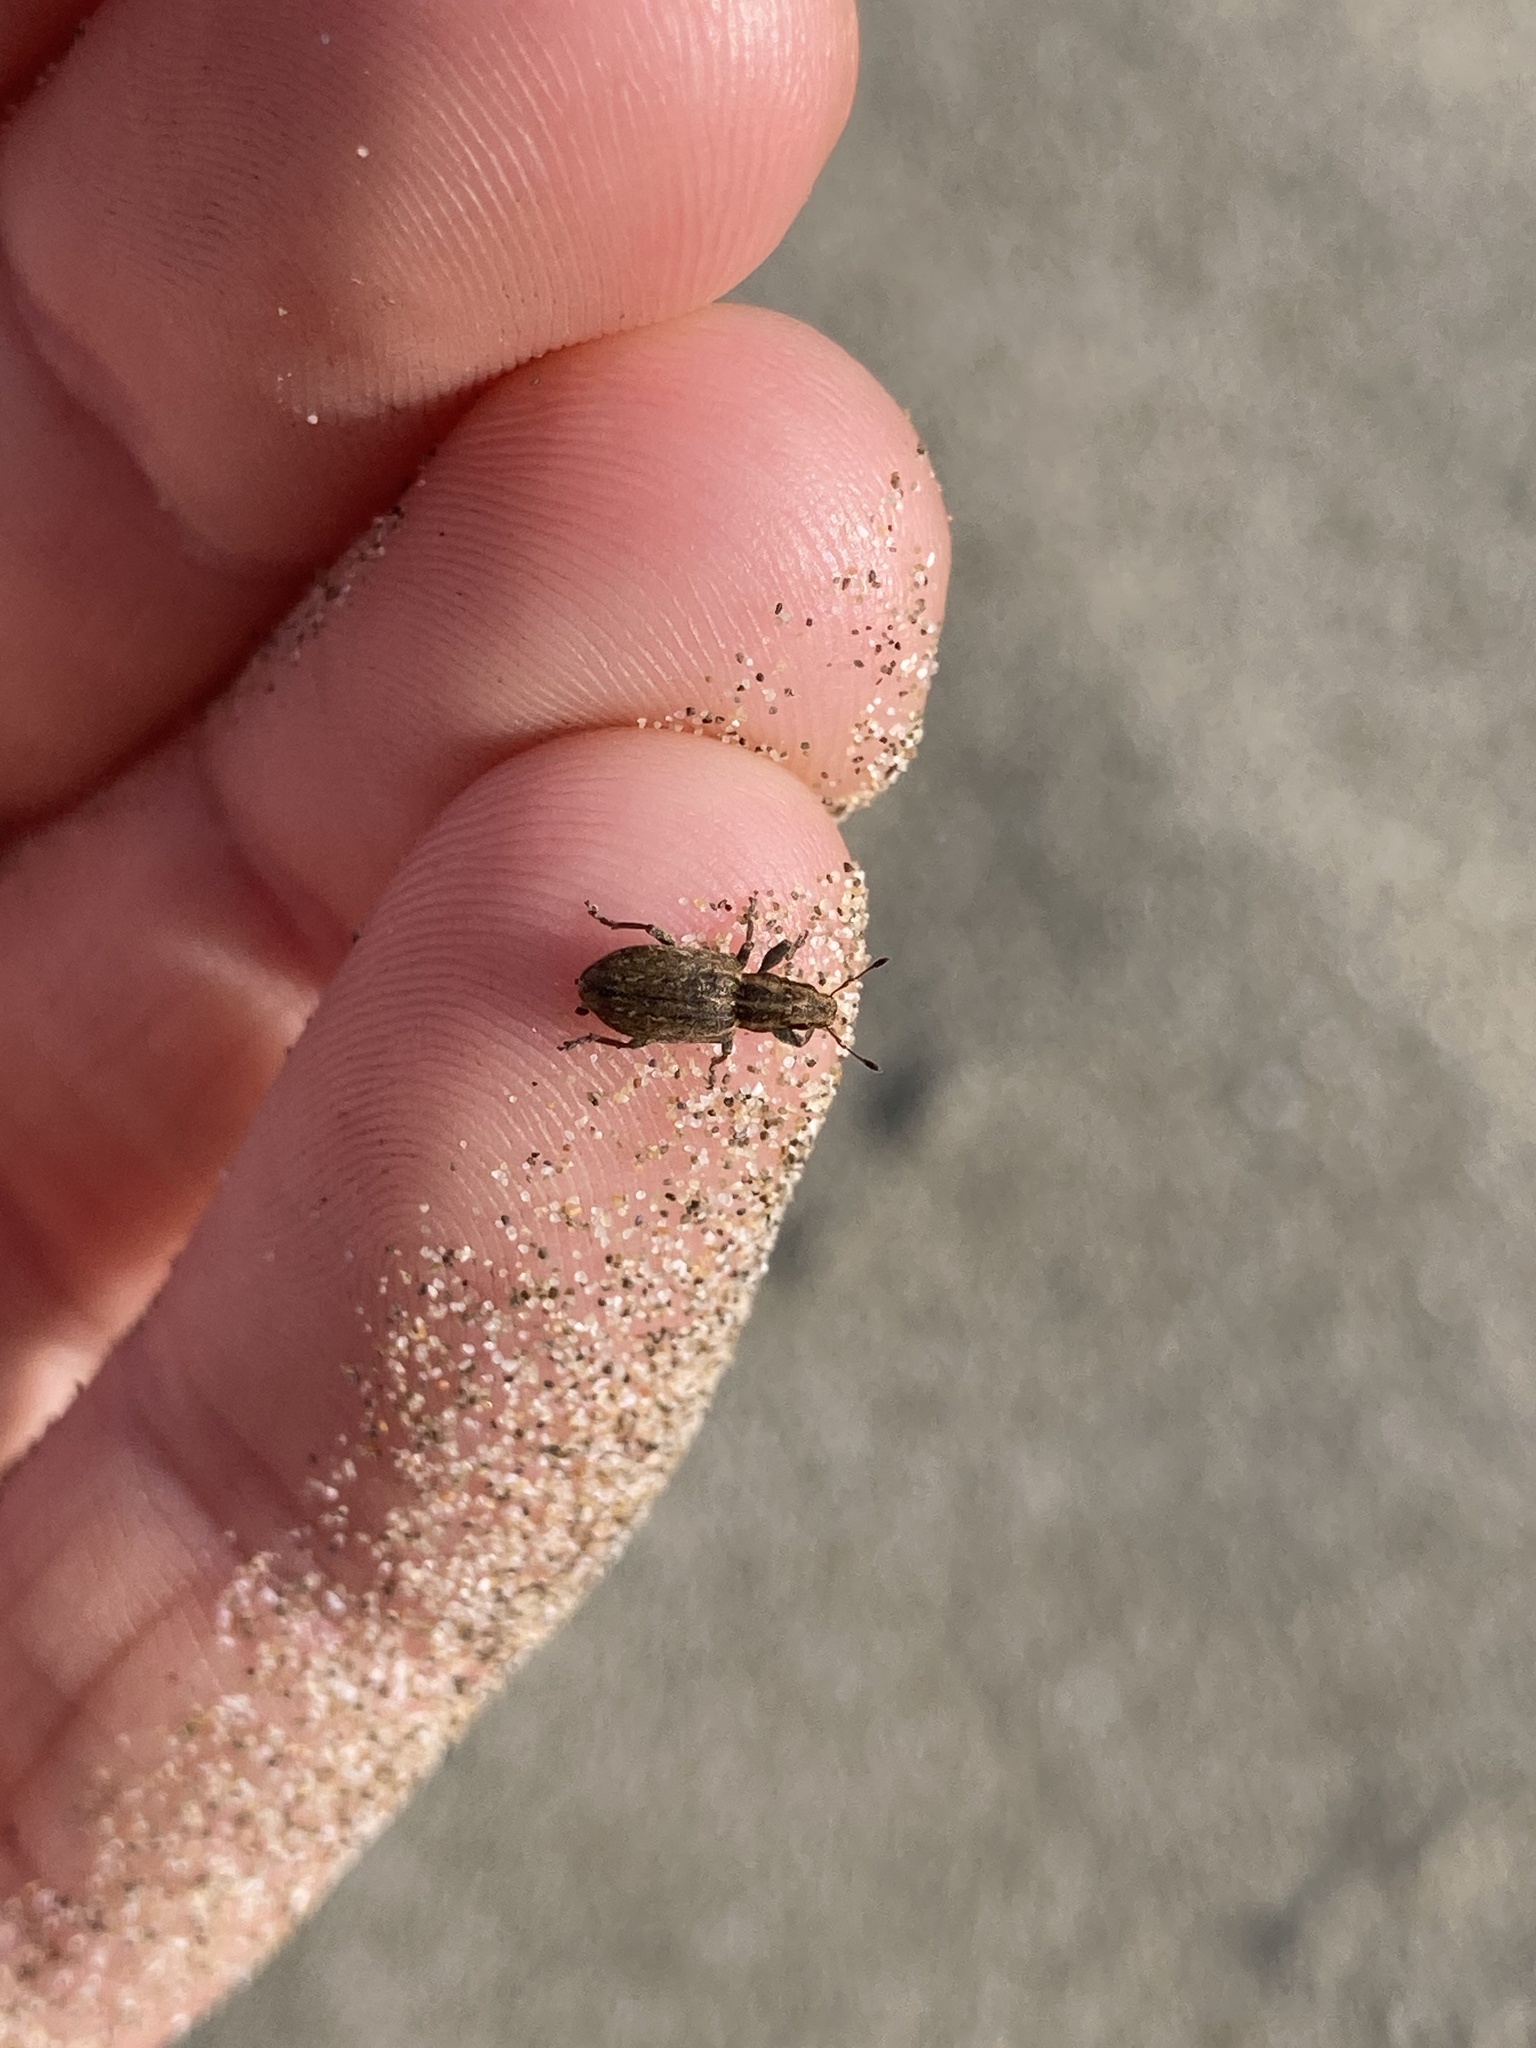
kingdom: Animalia
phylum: Arthropoda
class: Insecta
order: Coleoptera
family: Curculionidae
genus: Sitona
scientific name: Sitona obsoletus
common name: Weevil
